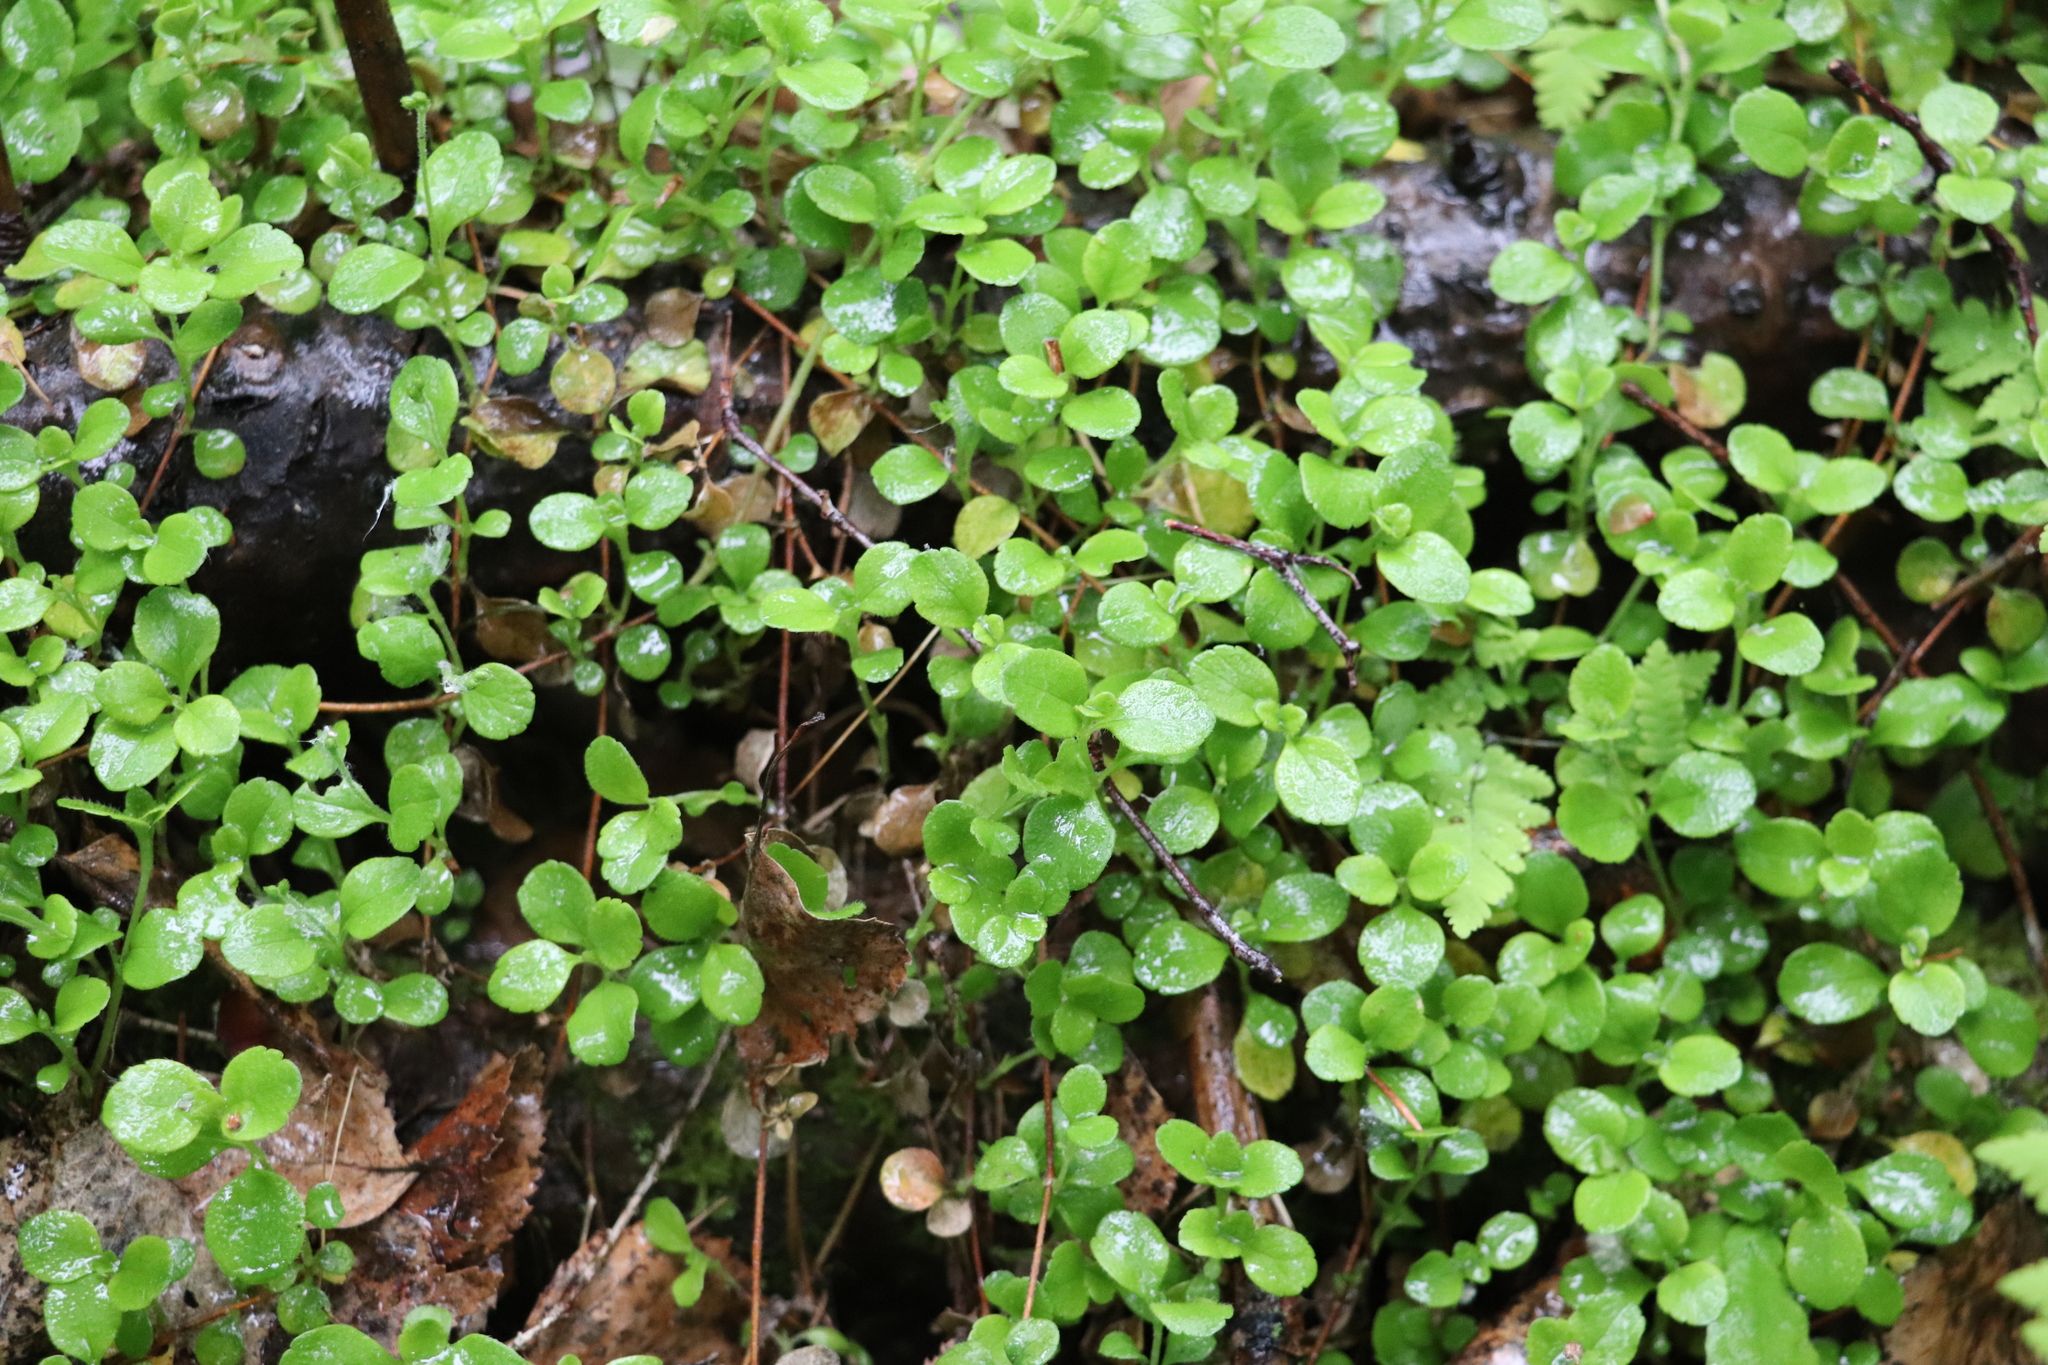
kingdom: Plantae
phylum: Tracheophyta
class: Magnoliopsida
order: Dipsacales
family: Caprifoliaceae
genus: Linnaea
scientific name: Linnaea borealis
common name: Twinflower
